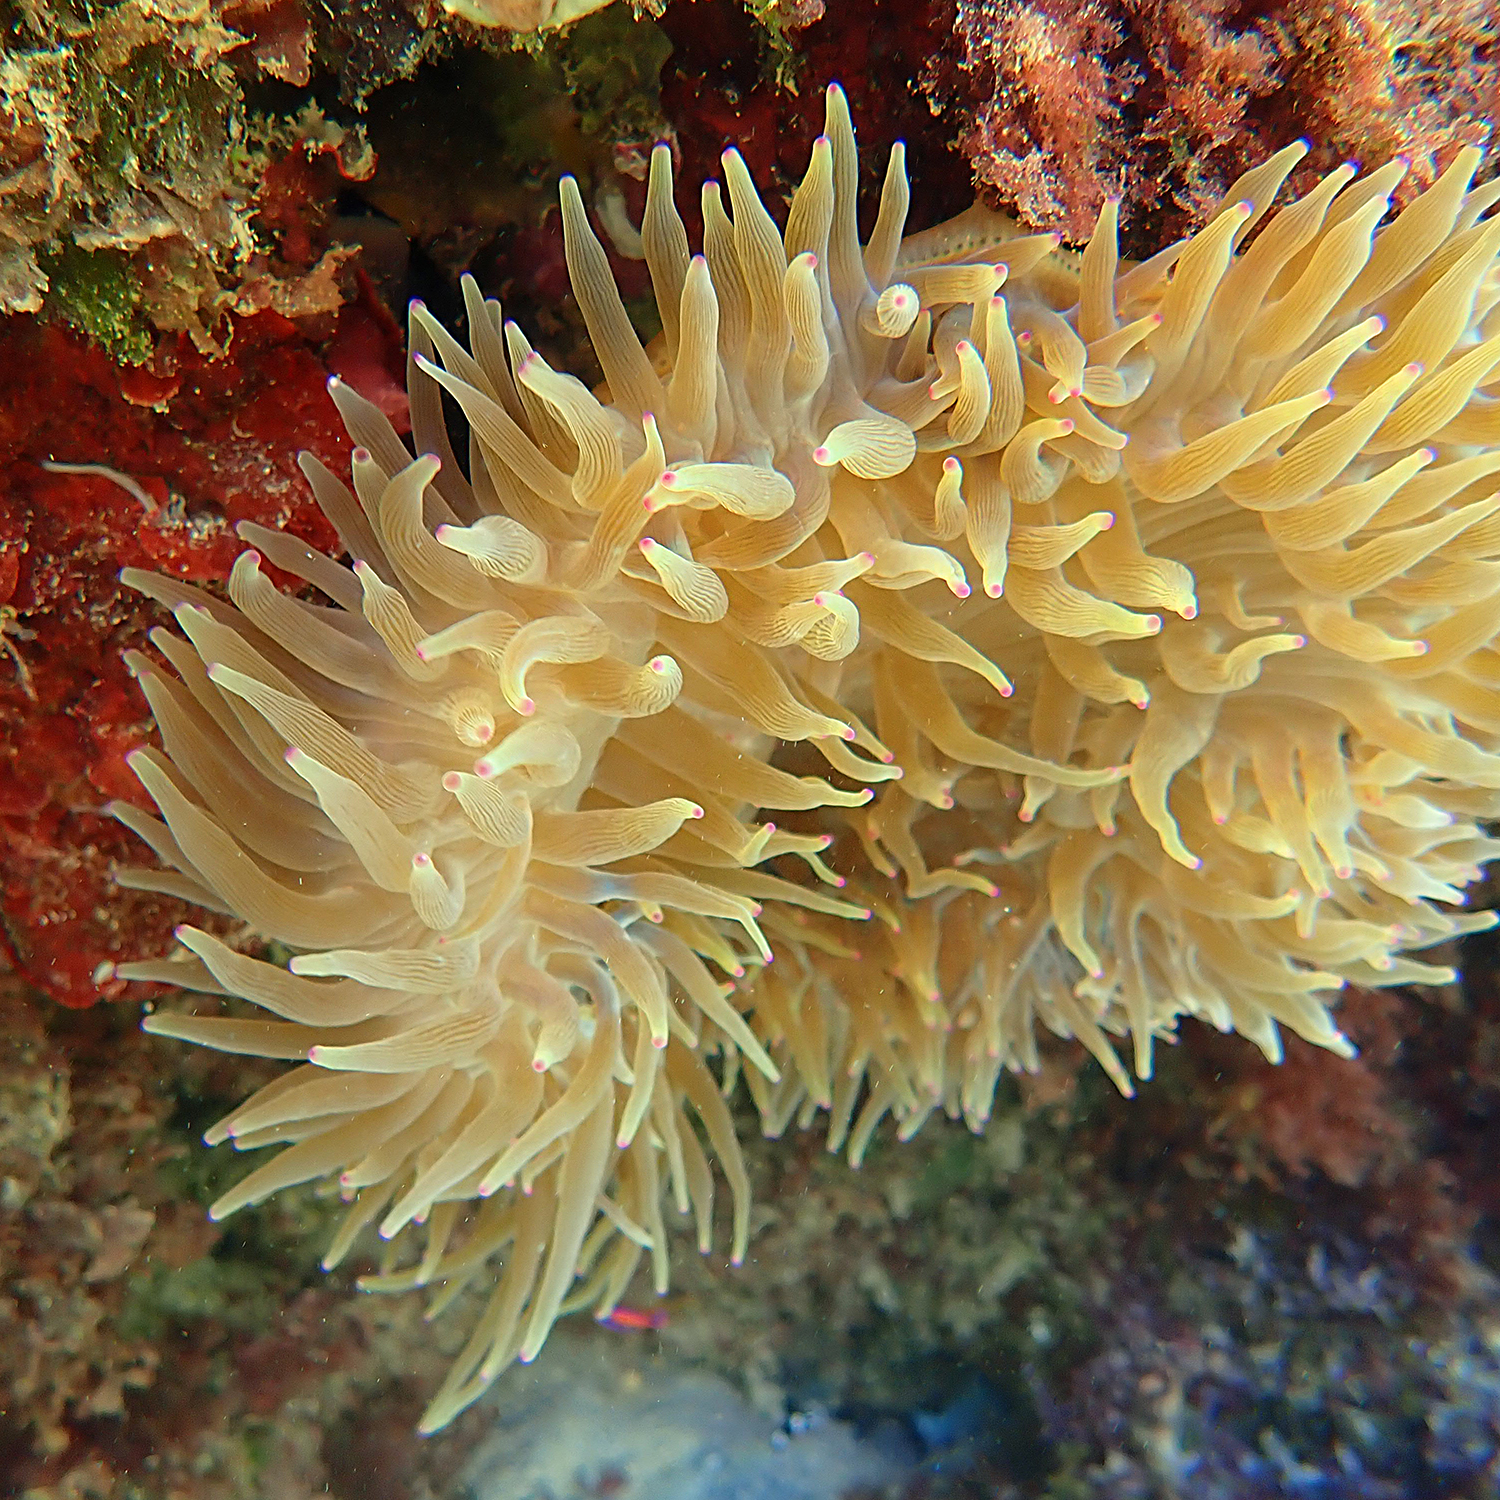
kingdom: Animalia
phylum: Cnidaria
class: Anthozoa
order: Actiniaria
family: Actiniidae
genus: Entacmaea
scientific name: Entacmaea quadricolor
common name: Bulb tentacle sea anemone
